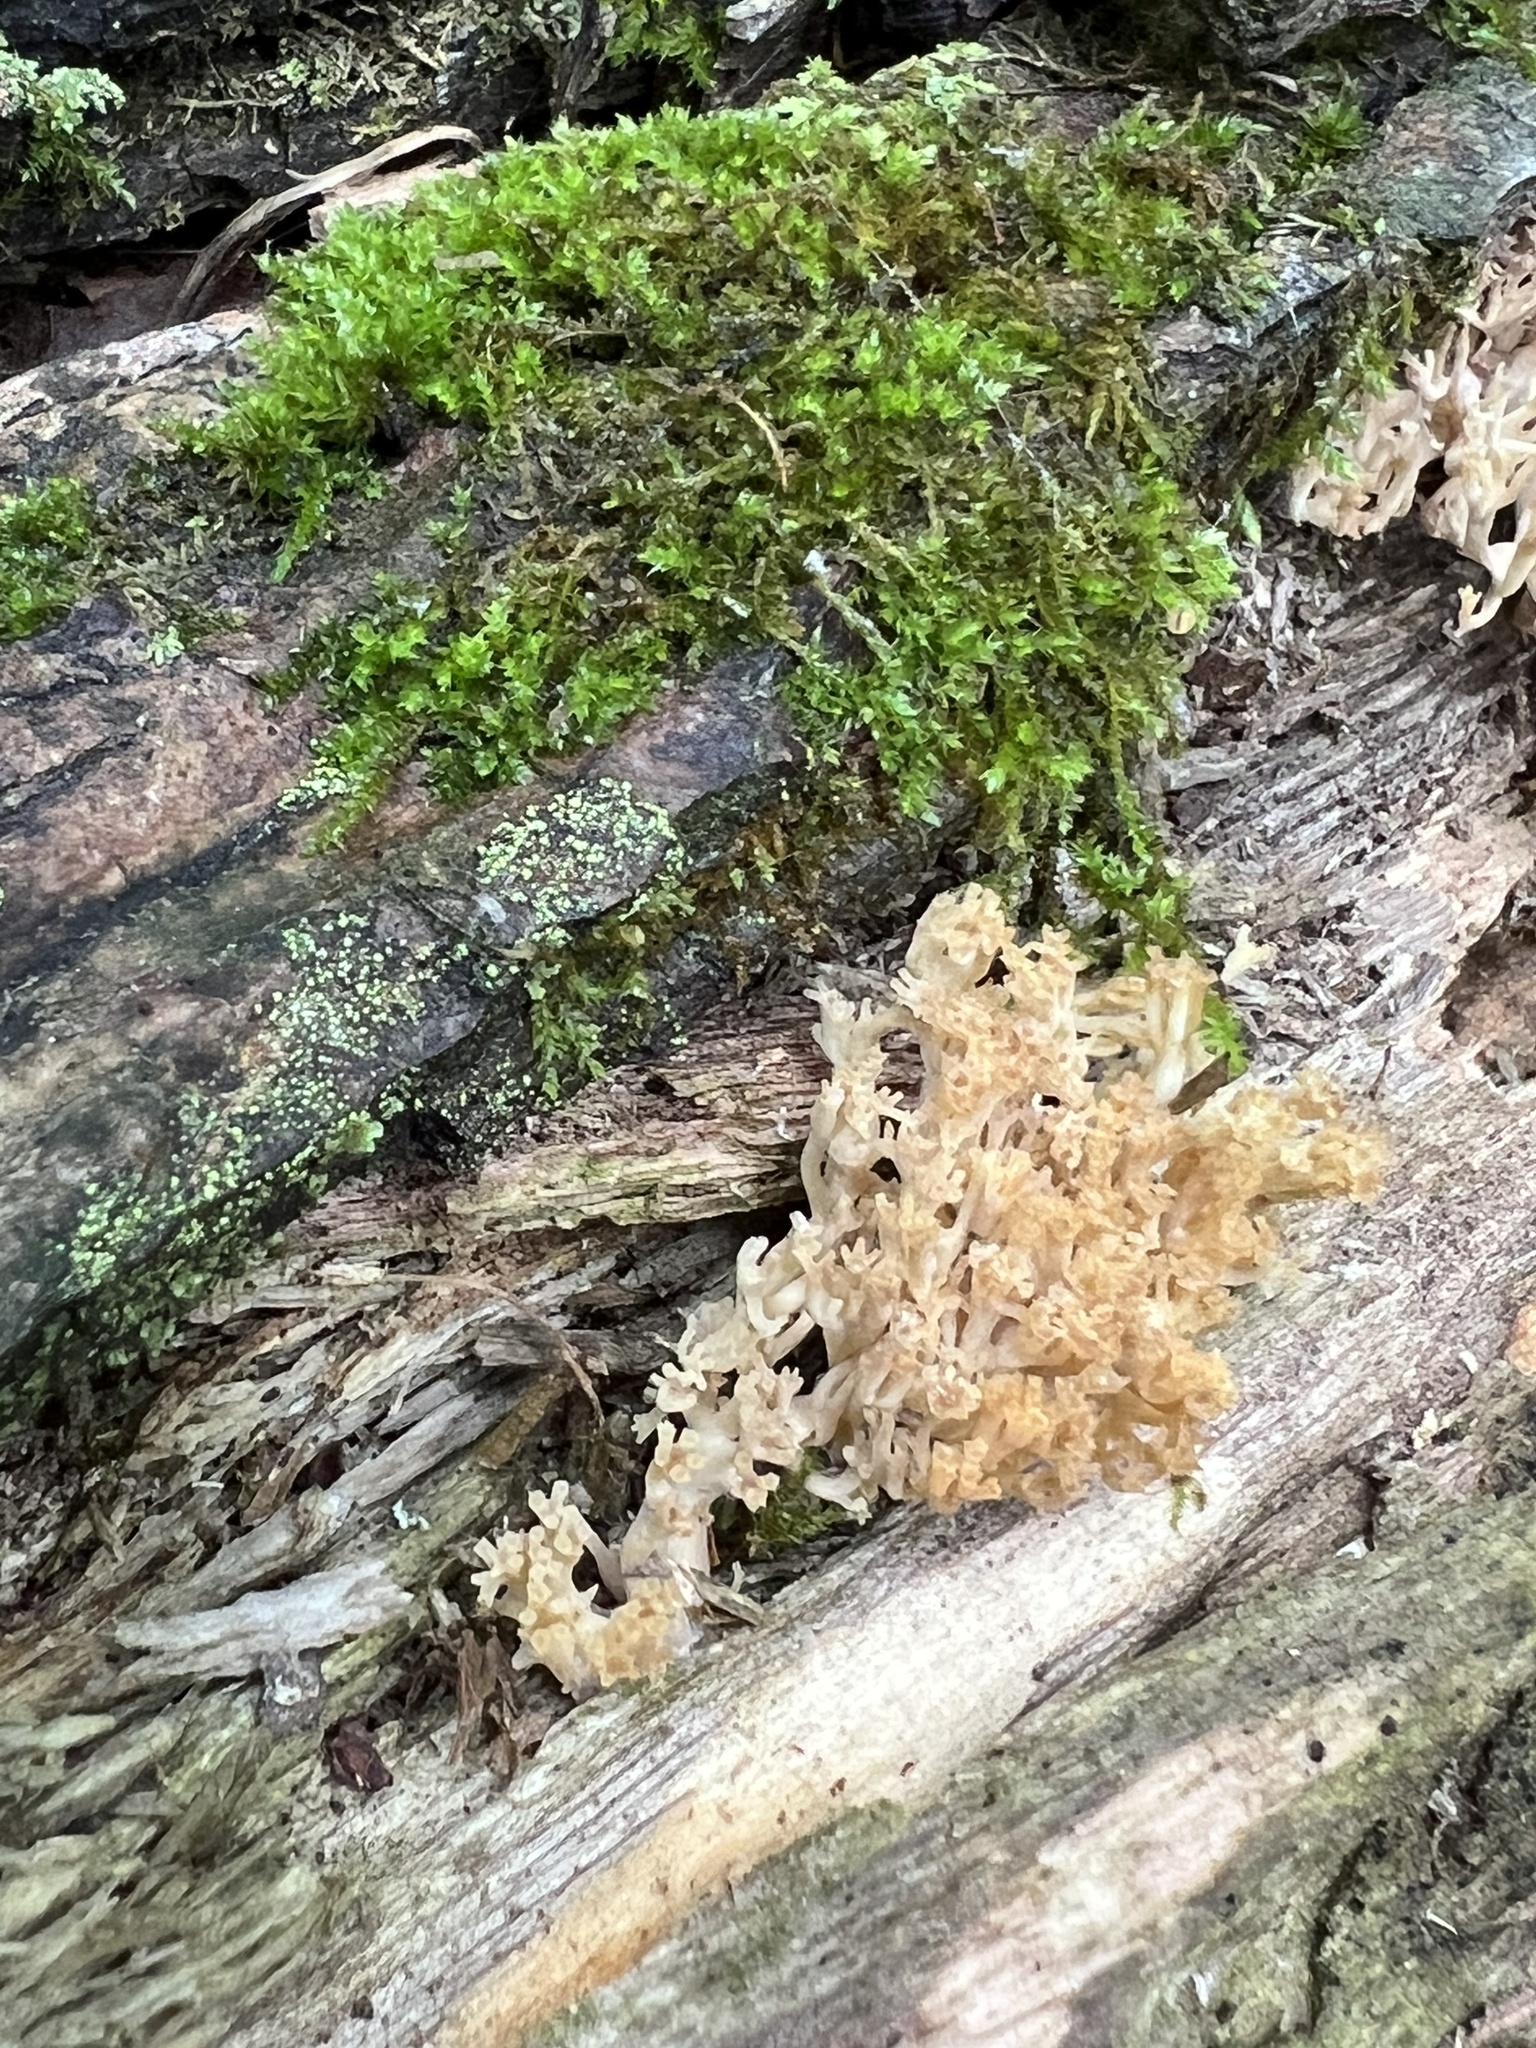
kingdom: Fungi
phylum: Basidiomycota
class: Agaricomycetes
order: Russulales
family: Auriscalpiaceae
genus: Artomyces
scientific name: Artomyces pyxidatus
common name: Crown-tipped coral fungus
